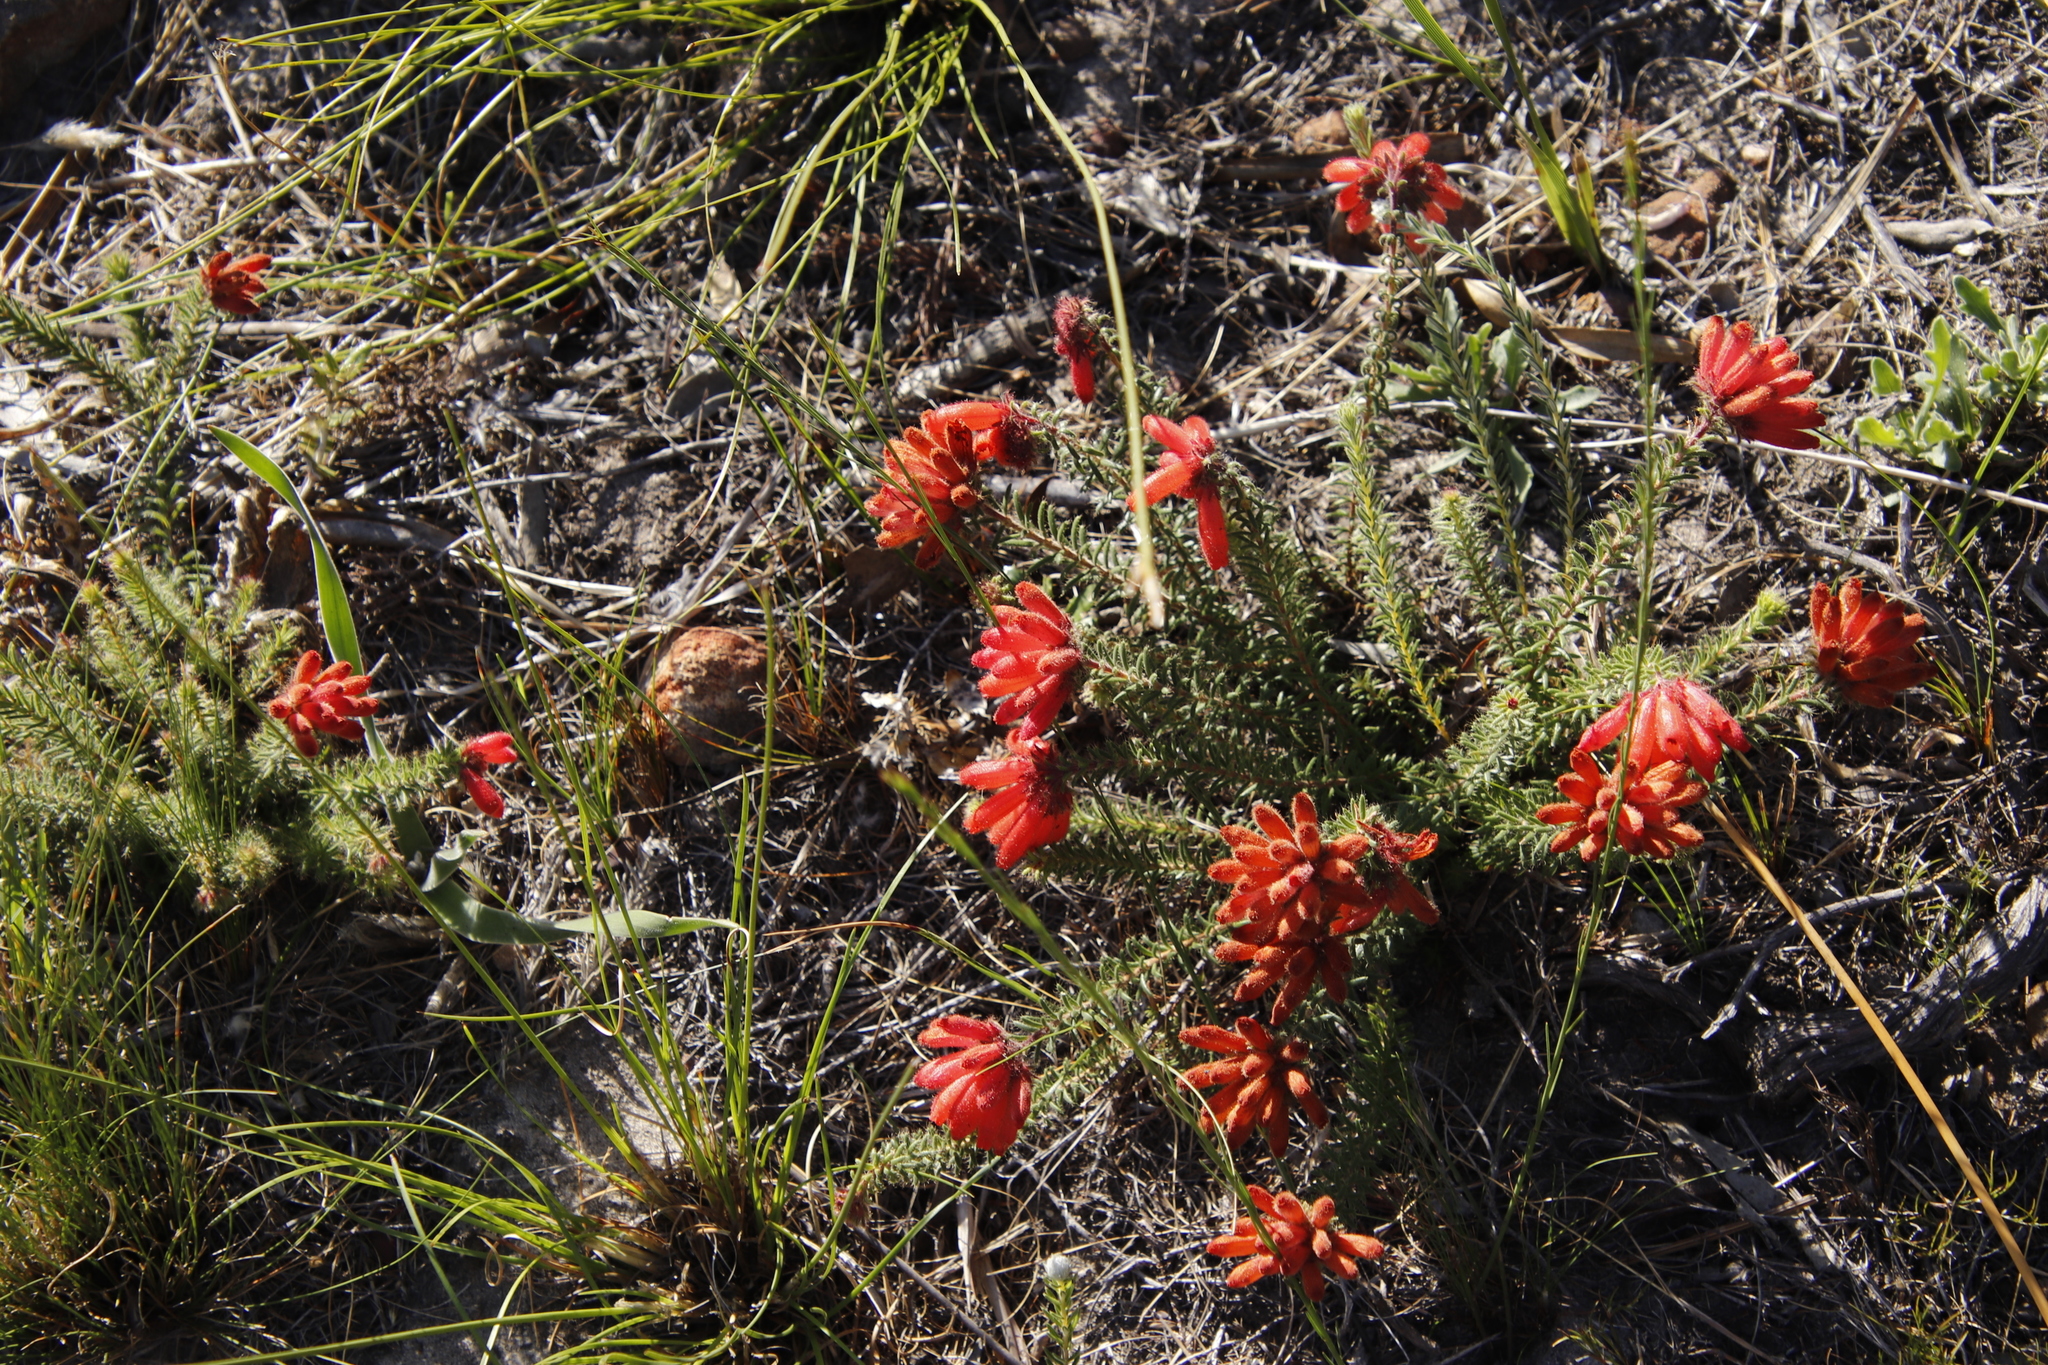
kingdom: Plantae
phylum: Tracheophyta
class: Magnoliopsida
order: Ericales
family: Ericaceae
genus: Erica
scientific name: Erica cerinthoides
